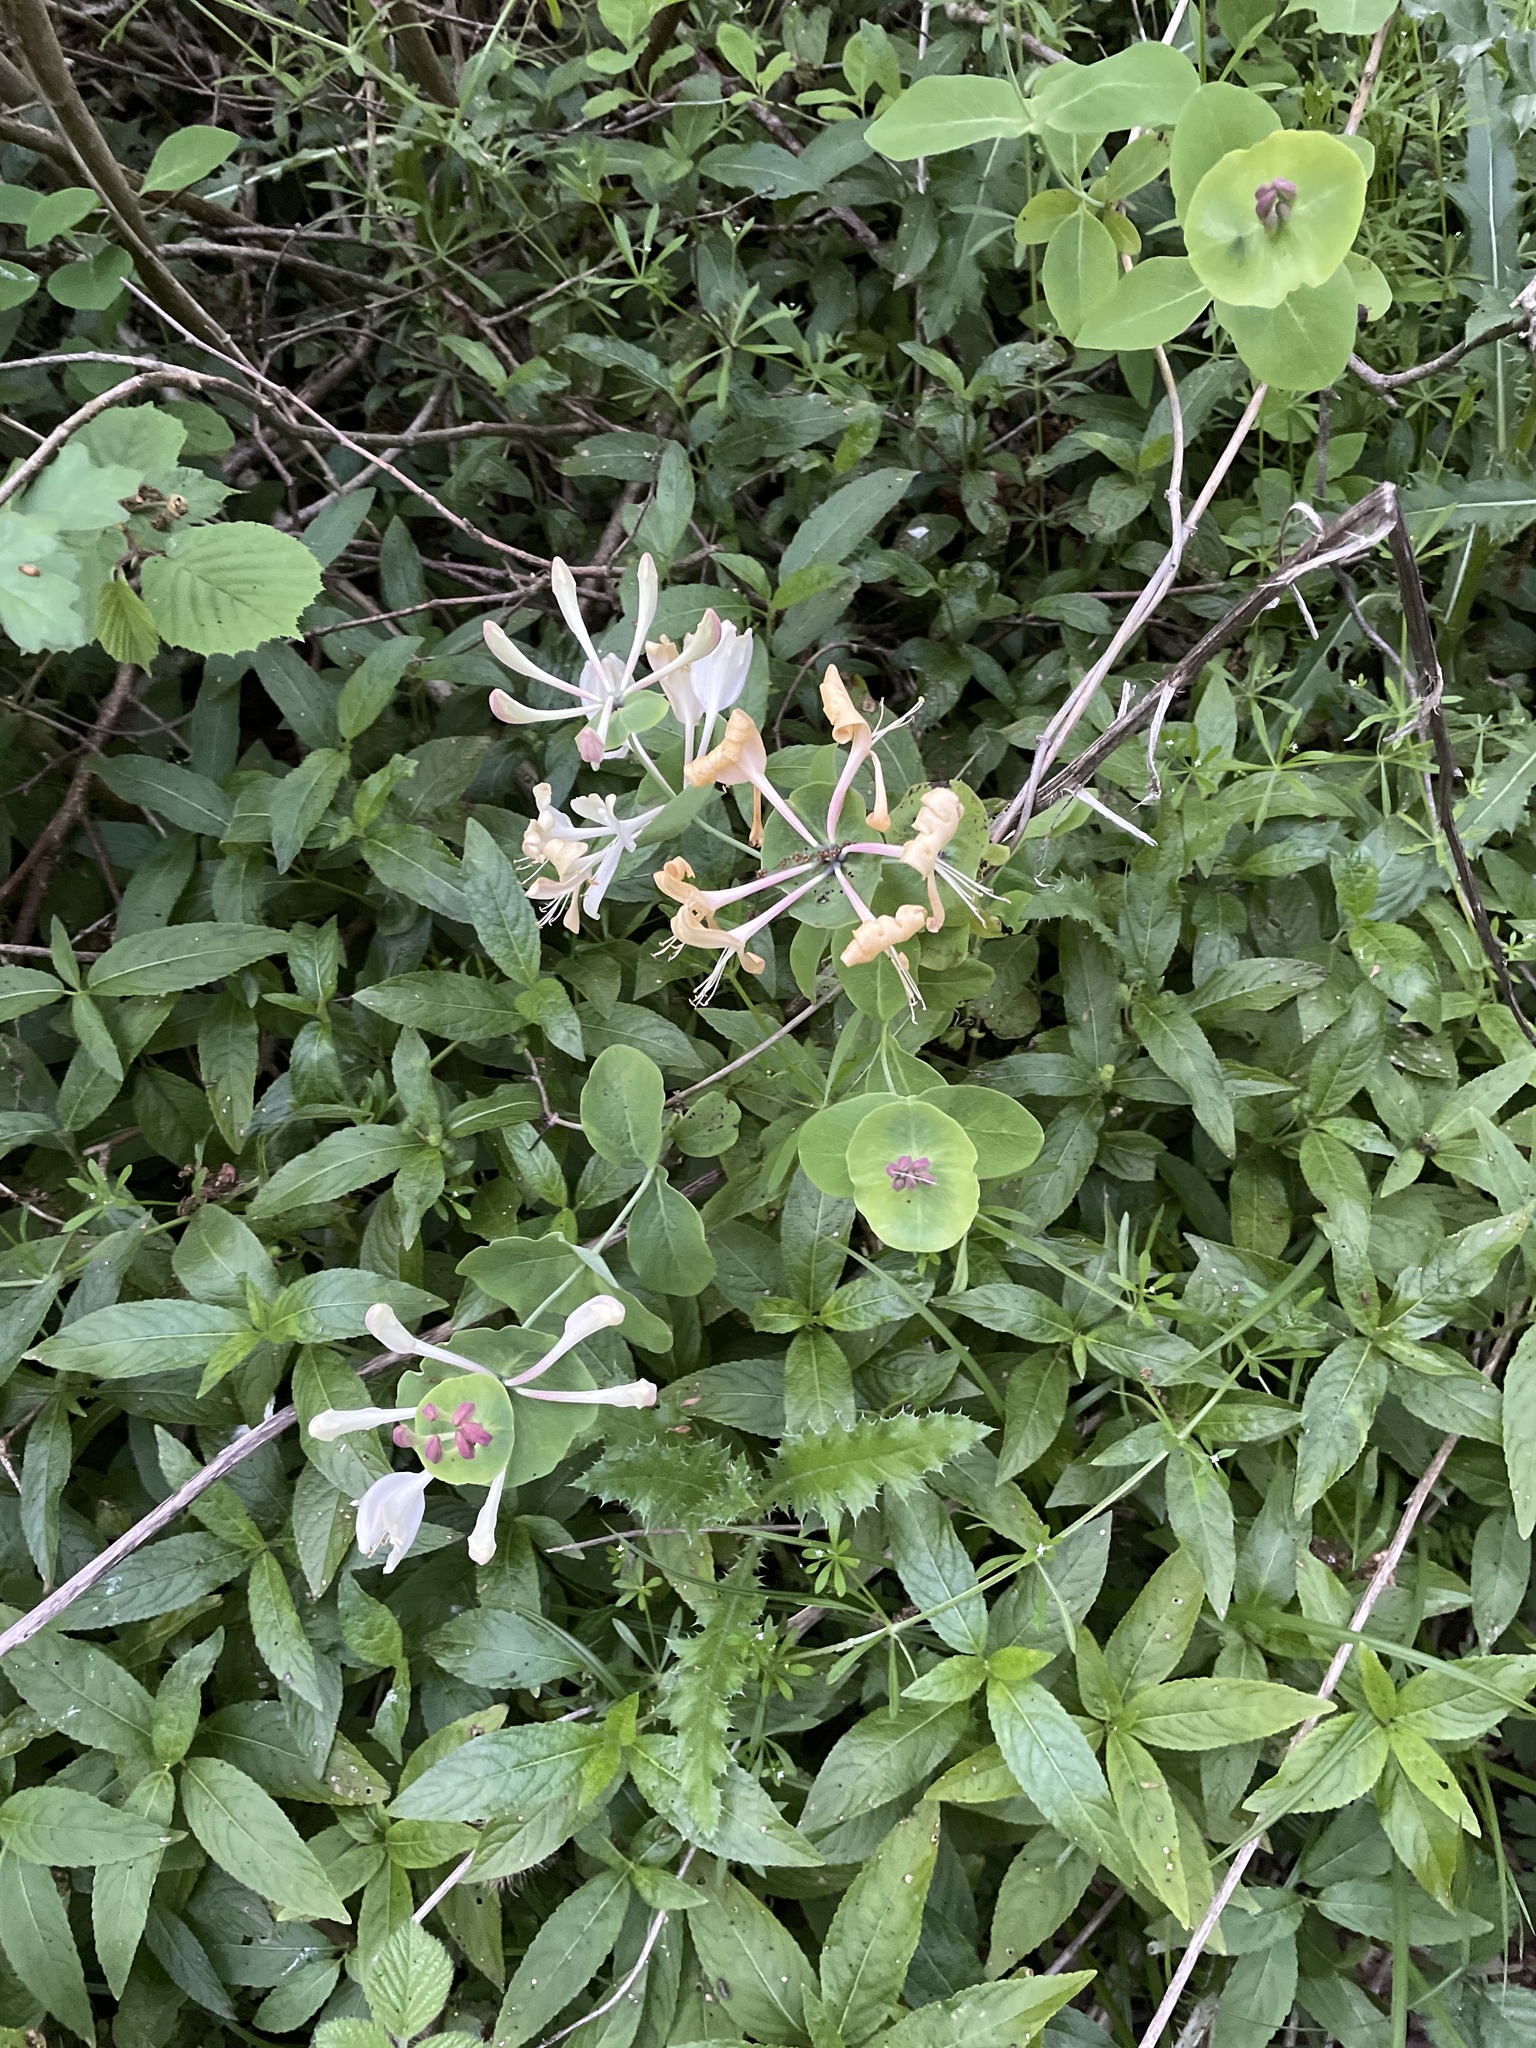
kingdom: Plantae
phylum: Tracheophyta
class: Magnoliopsida
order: Dipsacales
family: Caprifoliaceae
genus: Lonicera
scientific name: Lonicera caprifolium
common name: Perfoliate honeysuckle
